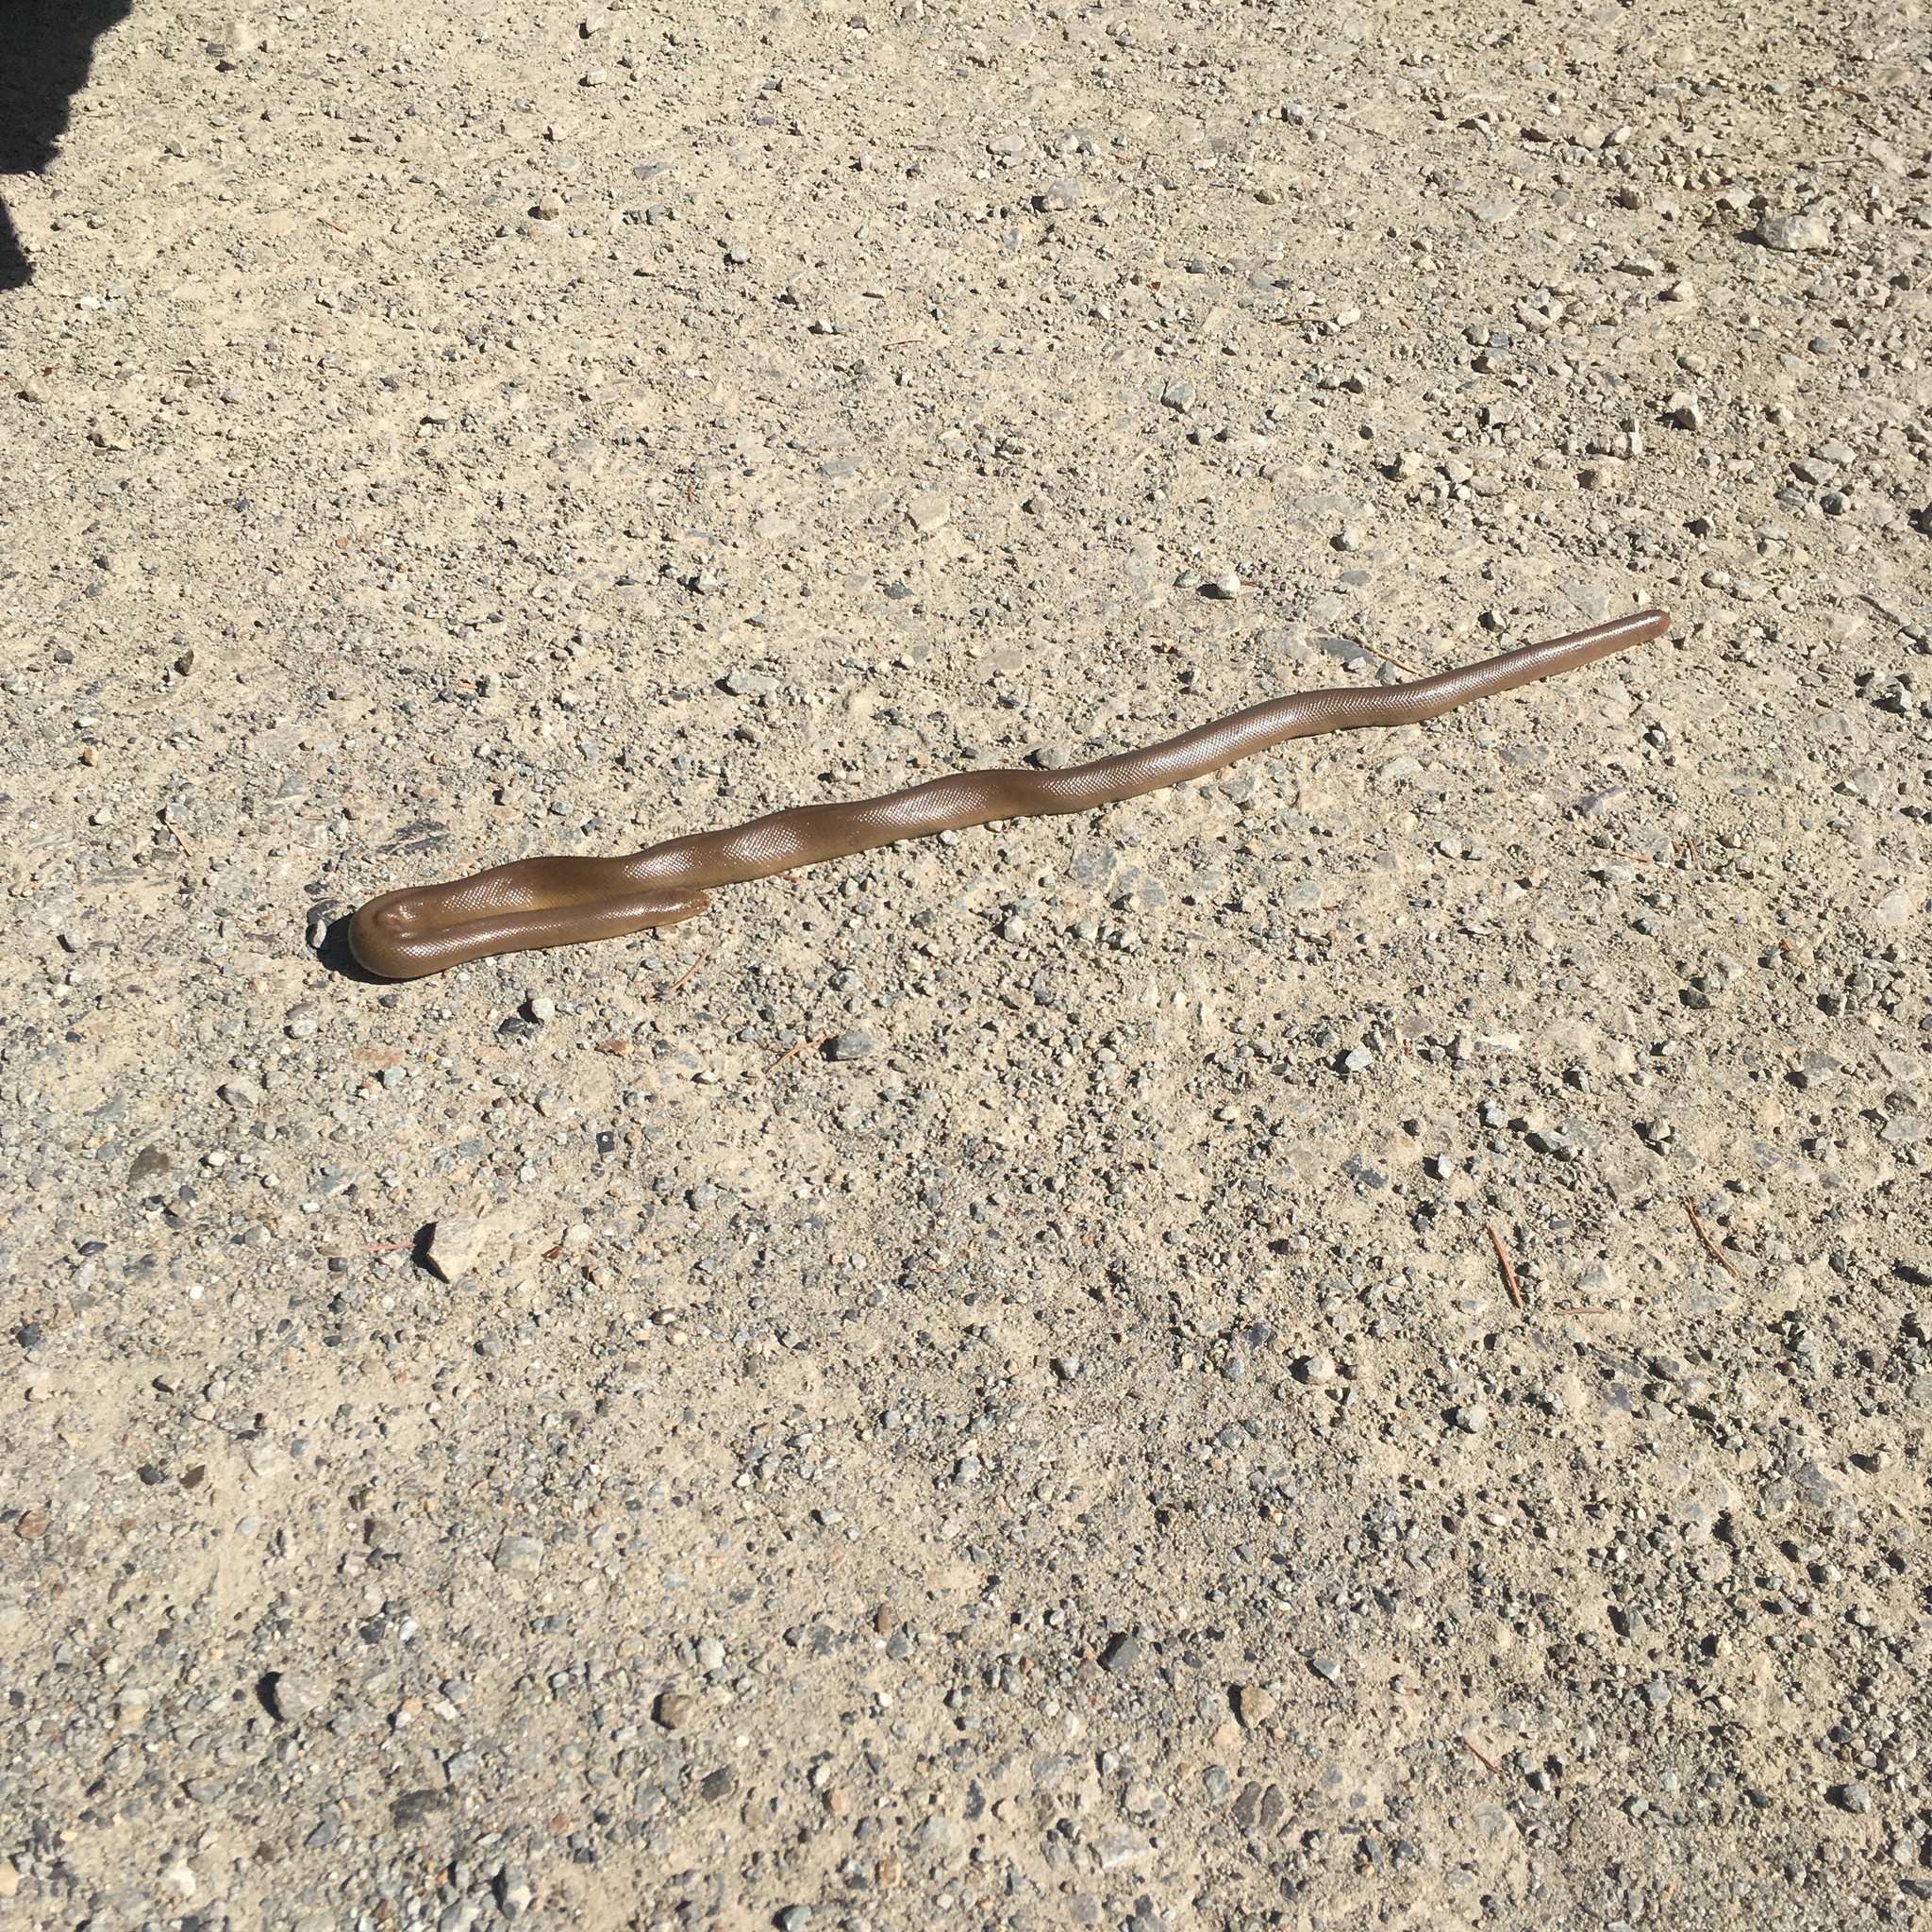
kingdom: Animalia
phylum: Chordata
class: Squamata
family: Boidae
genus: Charina
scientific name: Charina bottae
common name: Northern rubber boa
